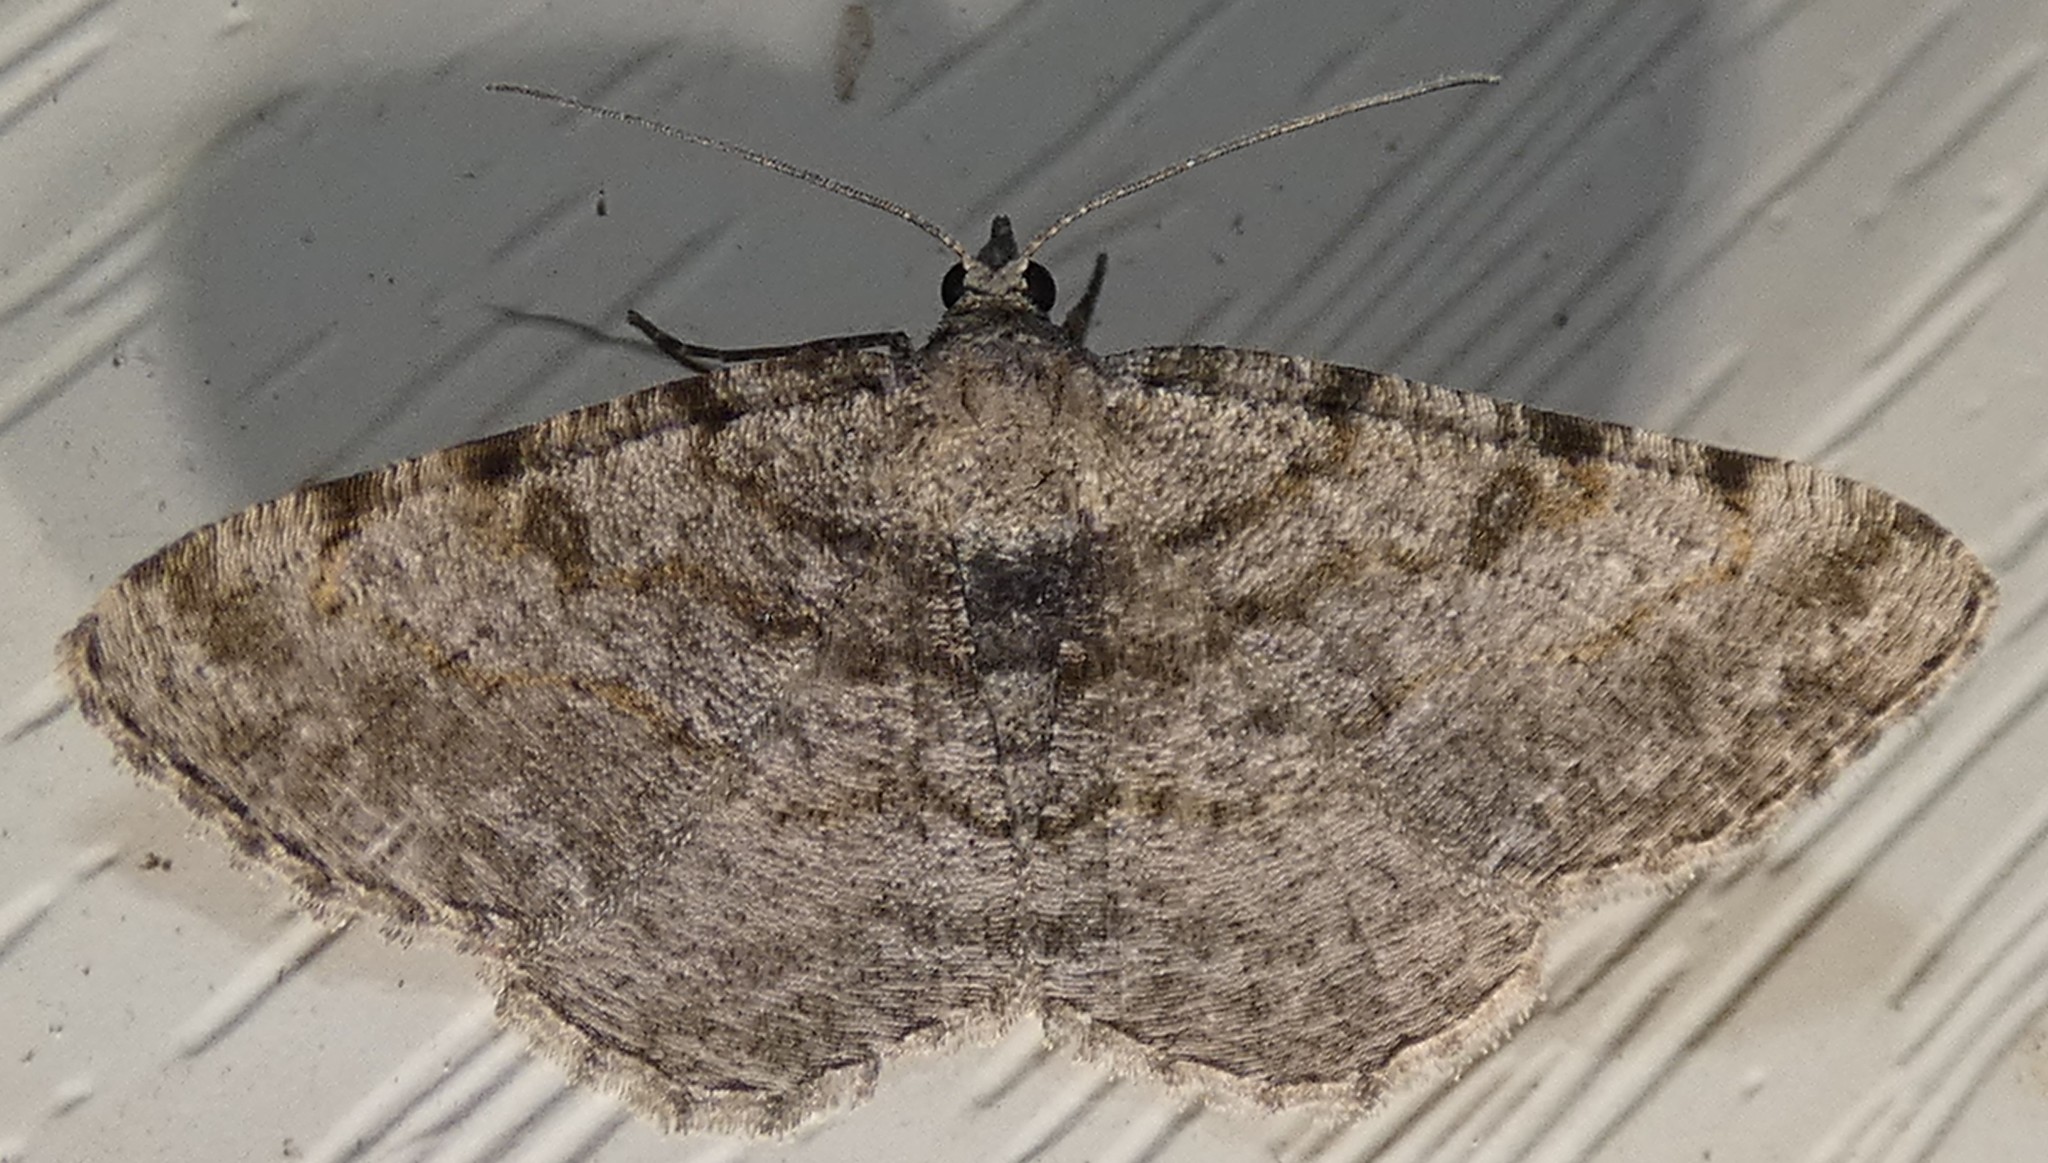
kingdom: Animalia
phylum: Arthropoda
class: Insecta
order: Lepidoptera
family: Geometridae
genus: Digrammia
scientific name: Digrammia gnophosaria
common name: Hollow-spotted angle
